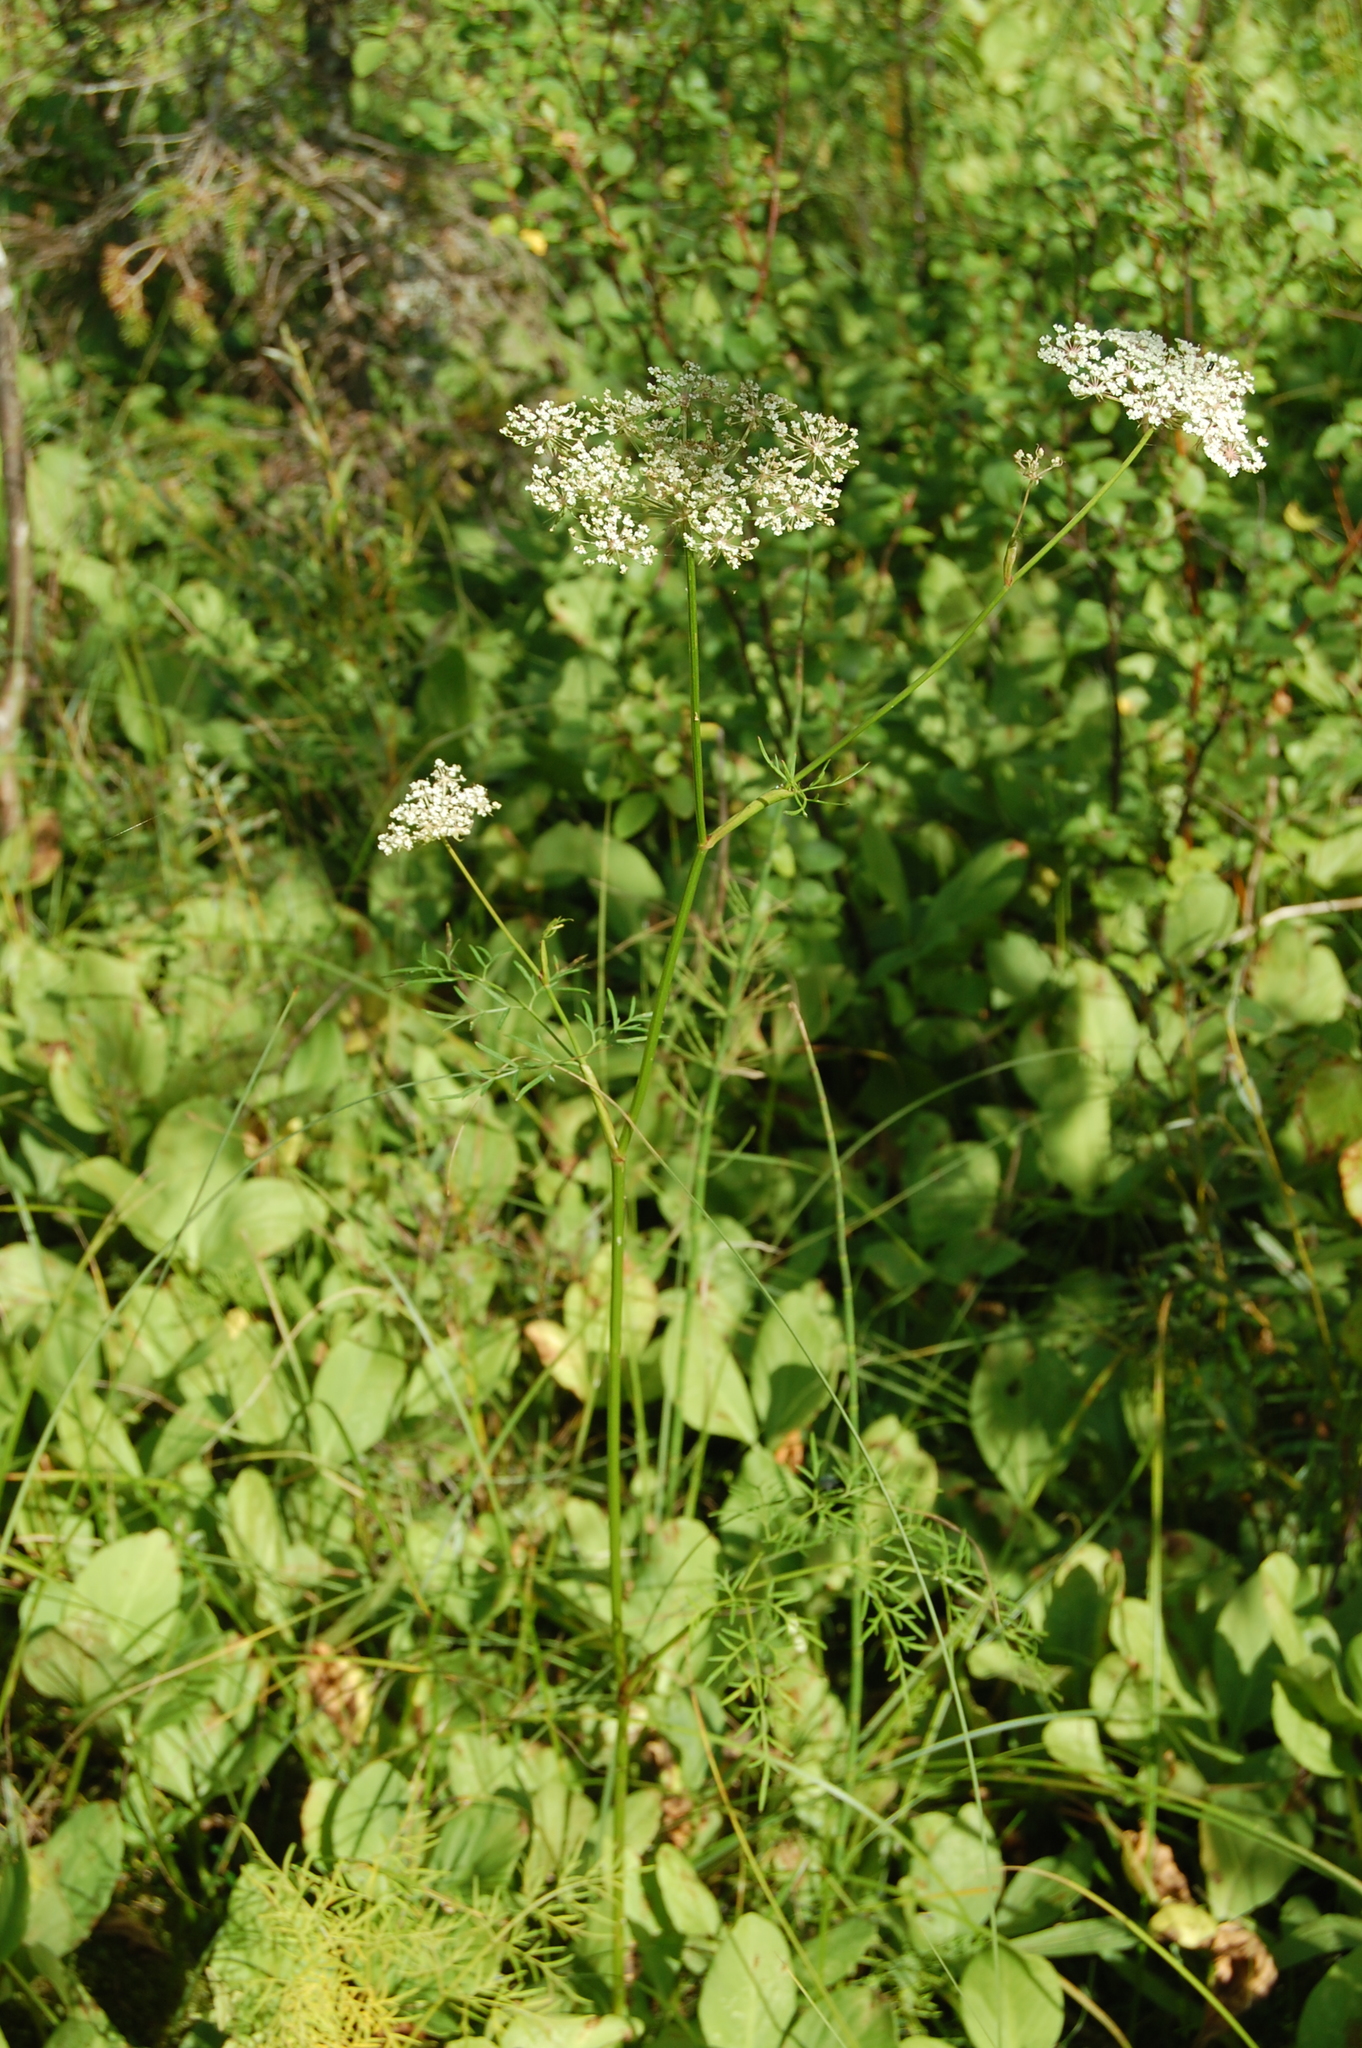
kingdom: Plantae
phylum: Tracheophyta
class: Magnoliopsida
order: Apiales
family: Apiaceae
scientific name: Apiaceae
